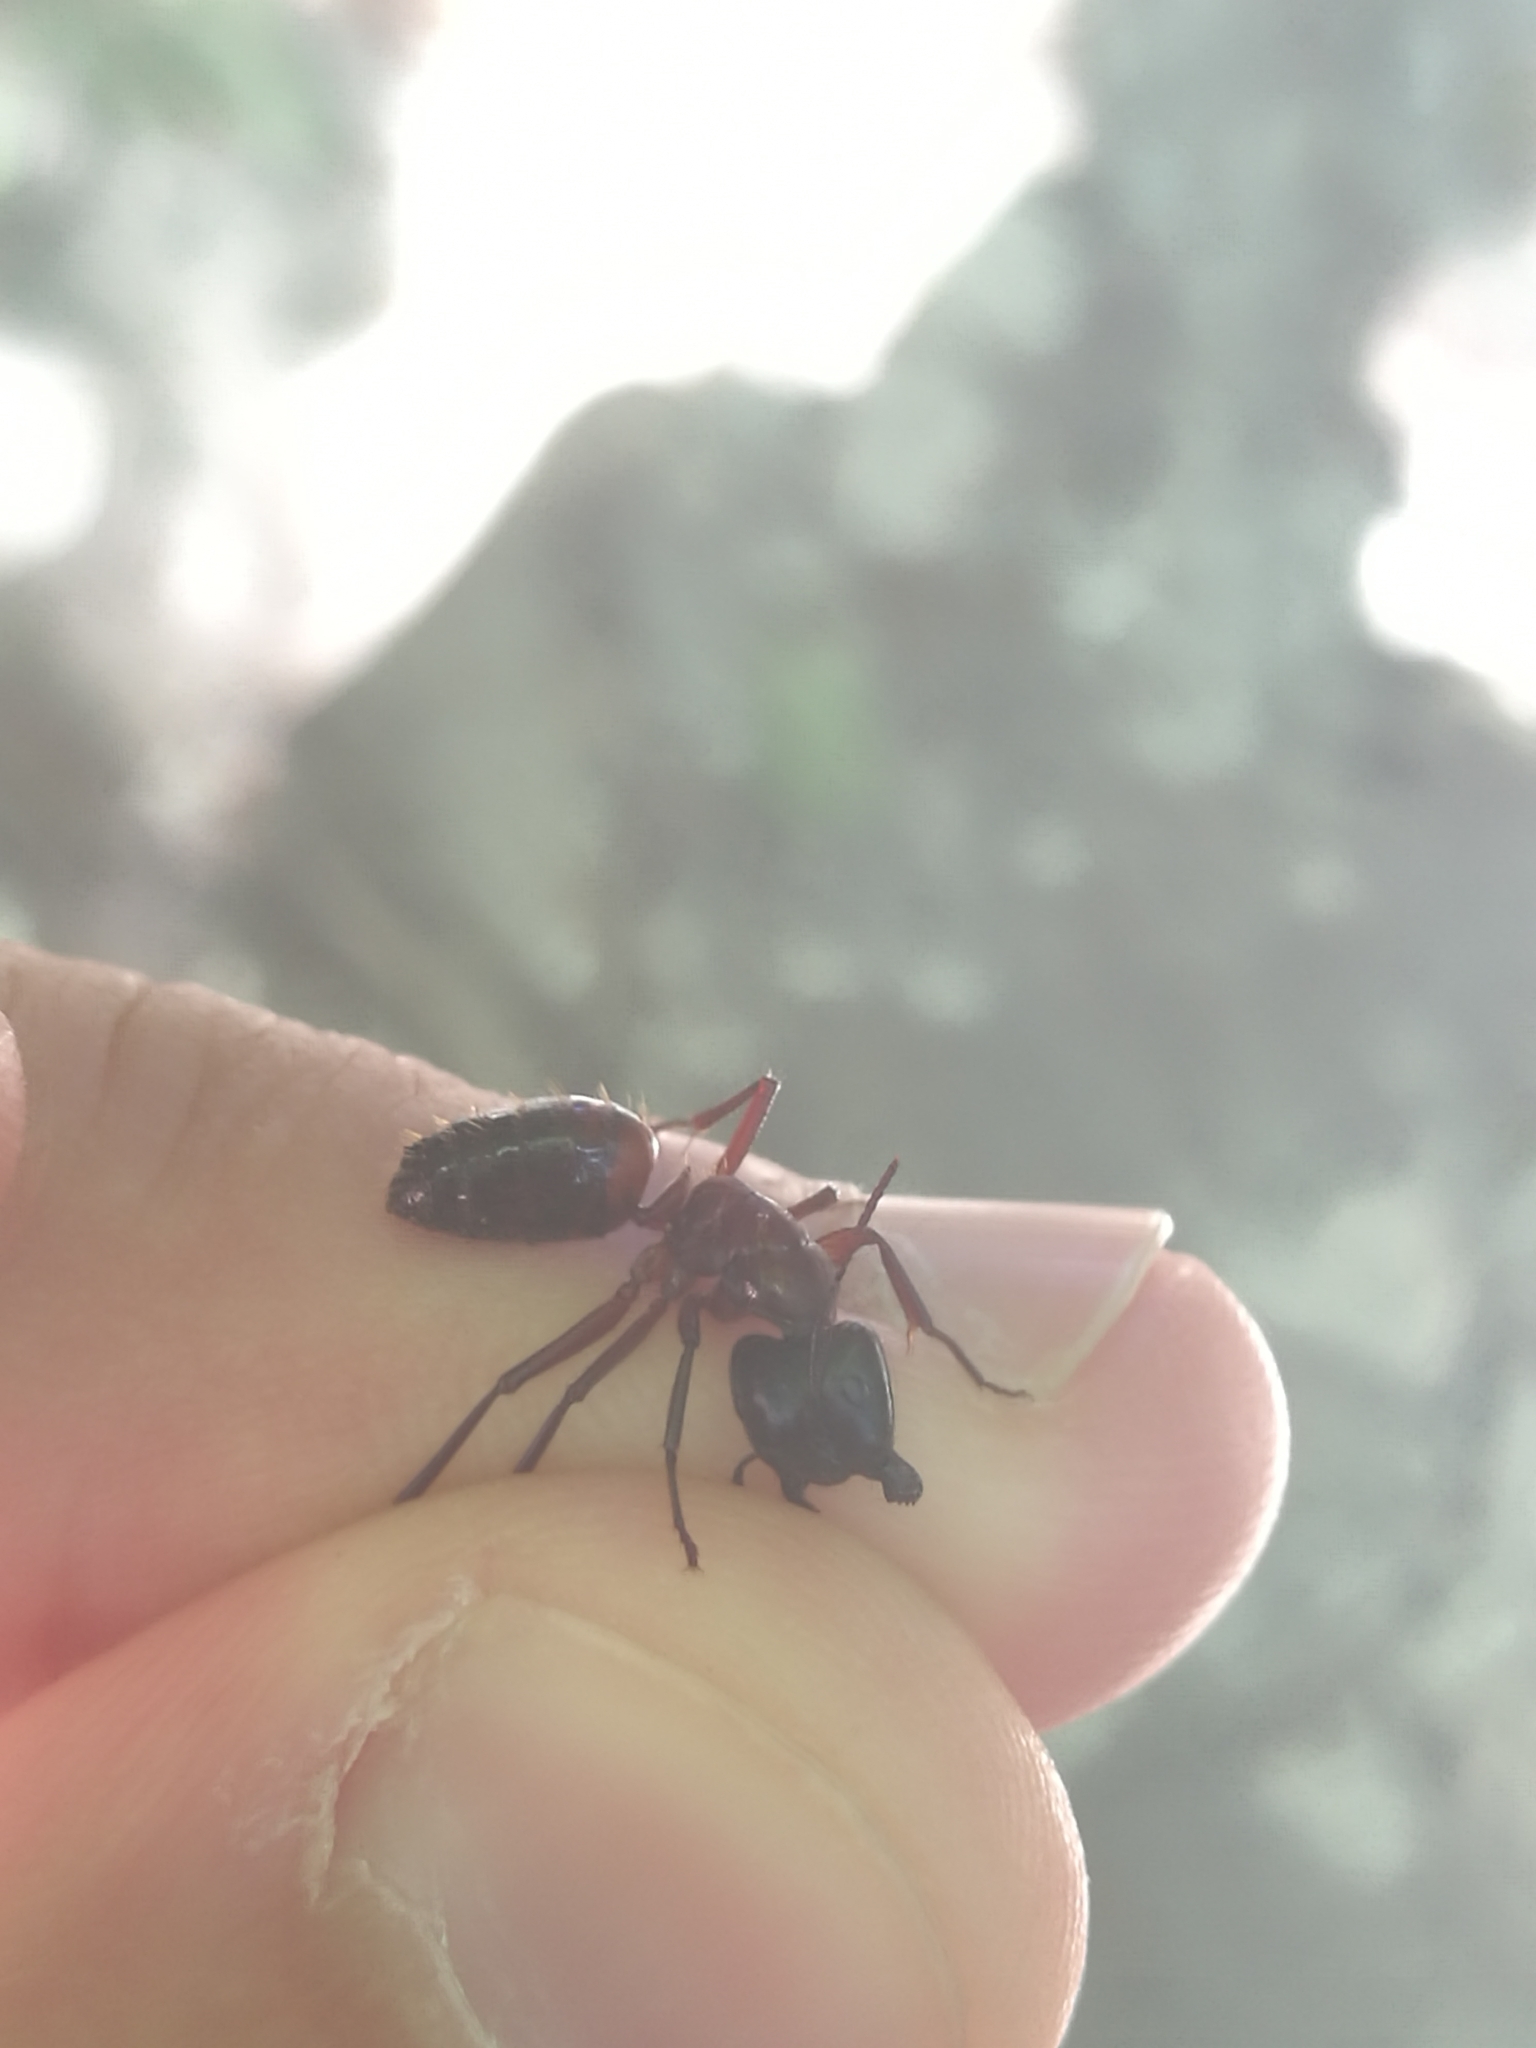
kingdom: Animalia
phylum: Arthropoda
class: Insecta
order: Hymenoptera
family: Formicidae
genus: Camponotus
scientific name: Camponotus ligniperdus
